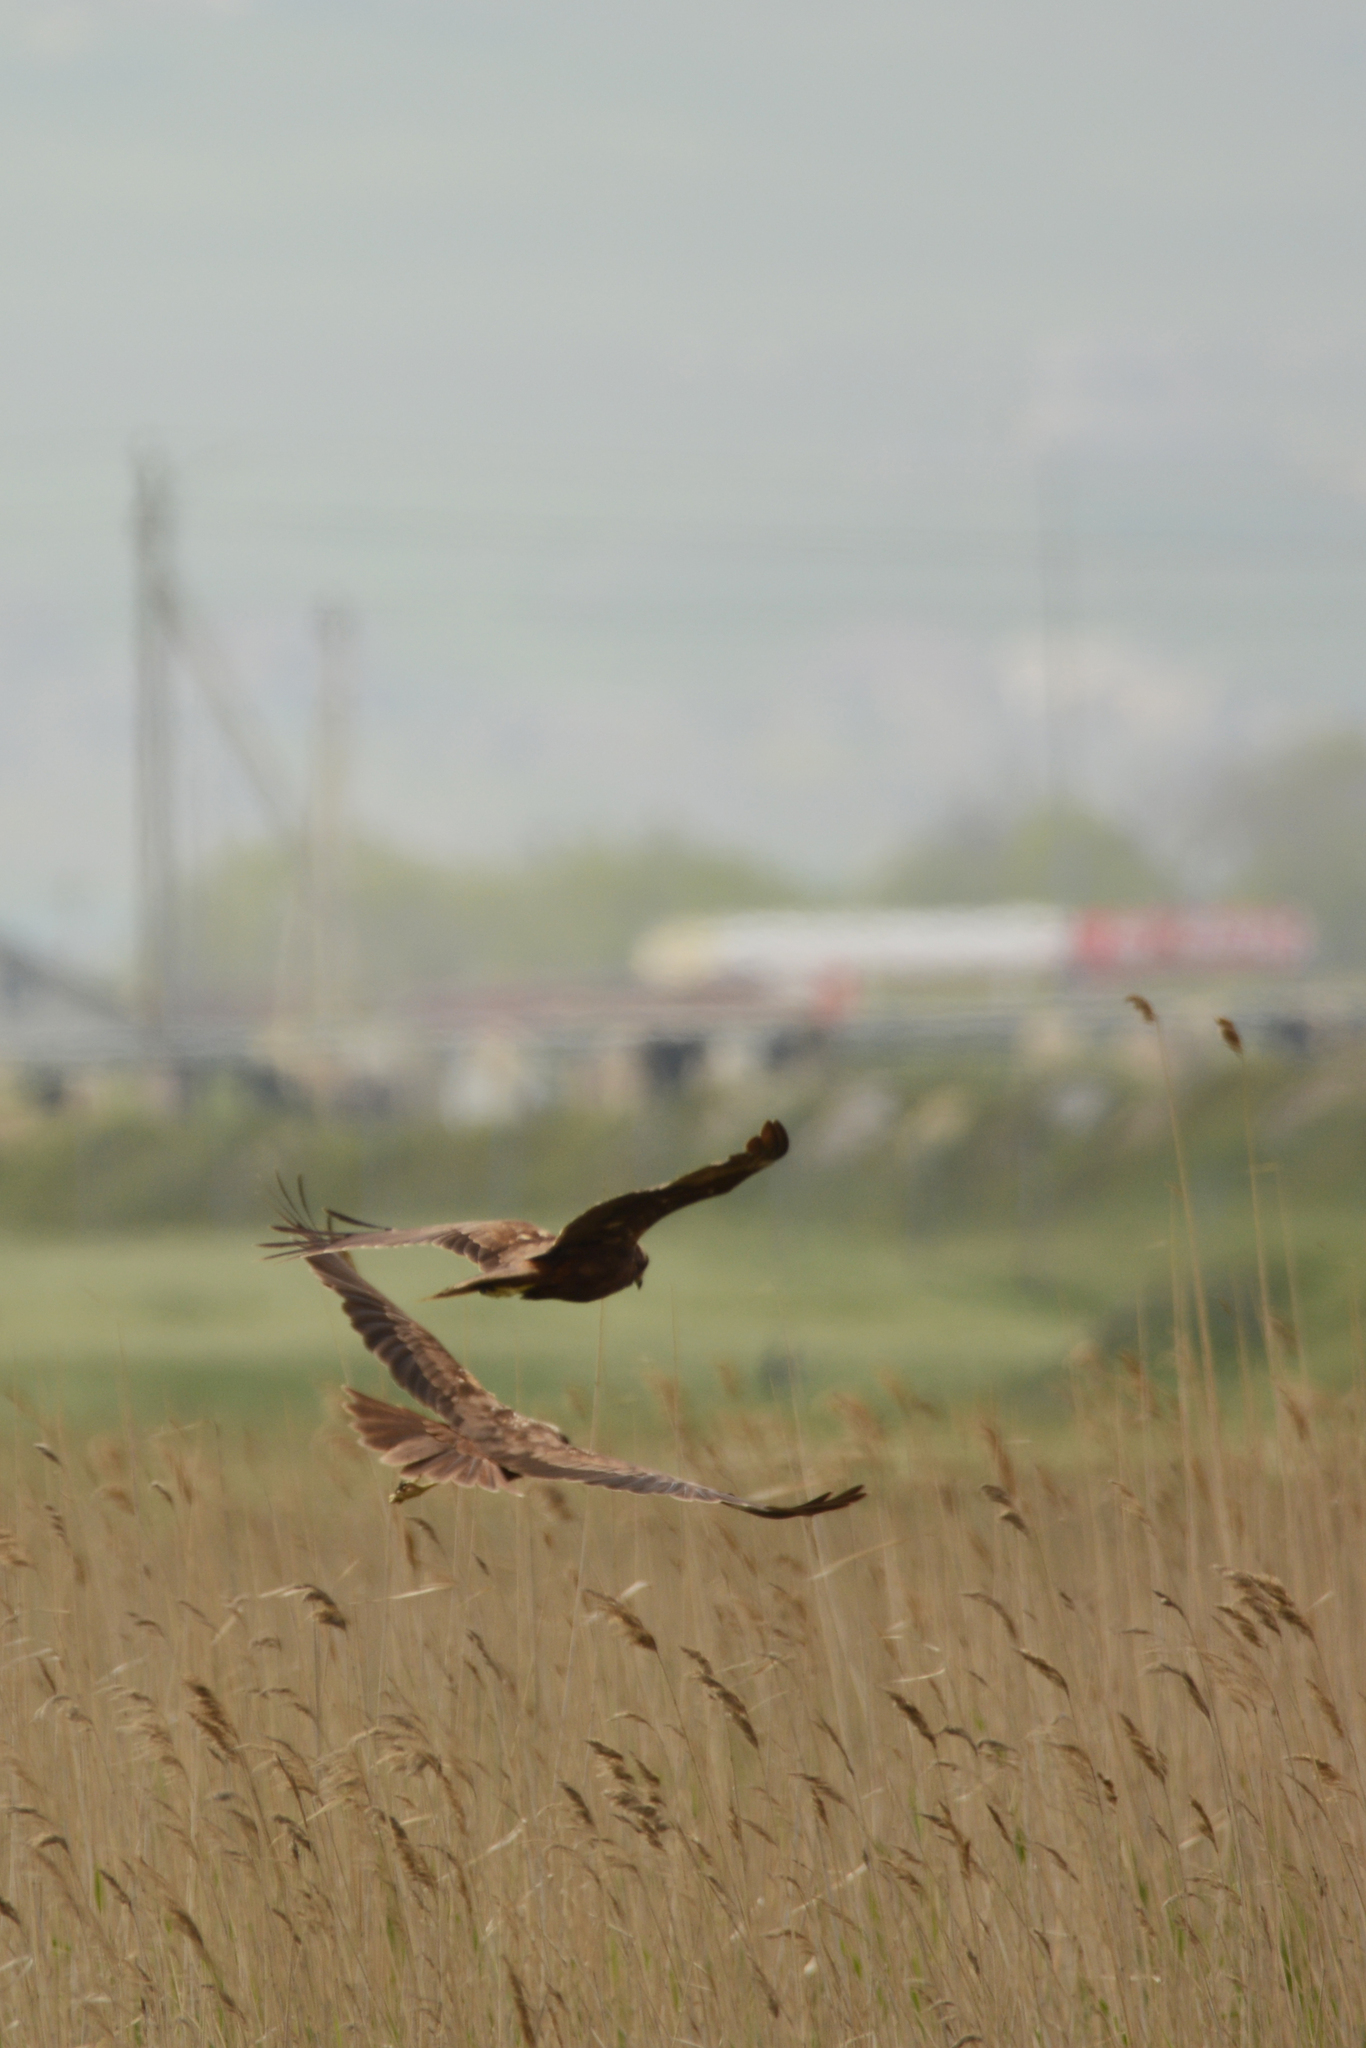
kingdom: Animalia
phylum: Chordata
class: Aves
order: Accipitriformes
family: Accipitridae
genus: Circus
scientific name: Circus aeruginosus
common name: Western marsh harrier
